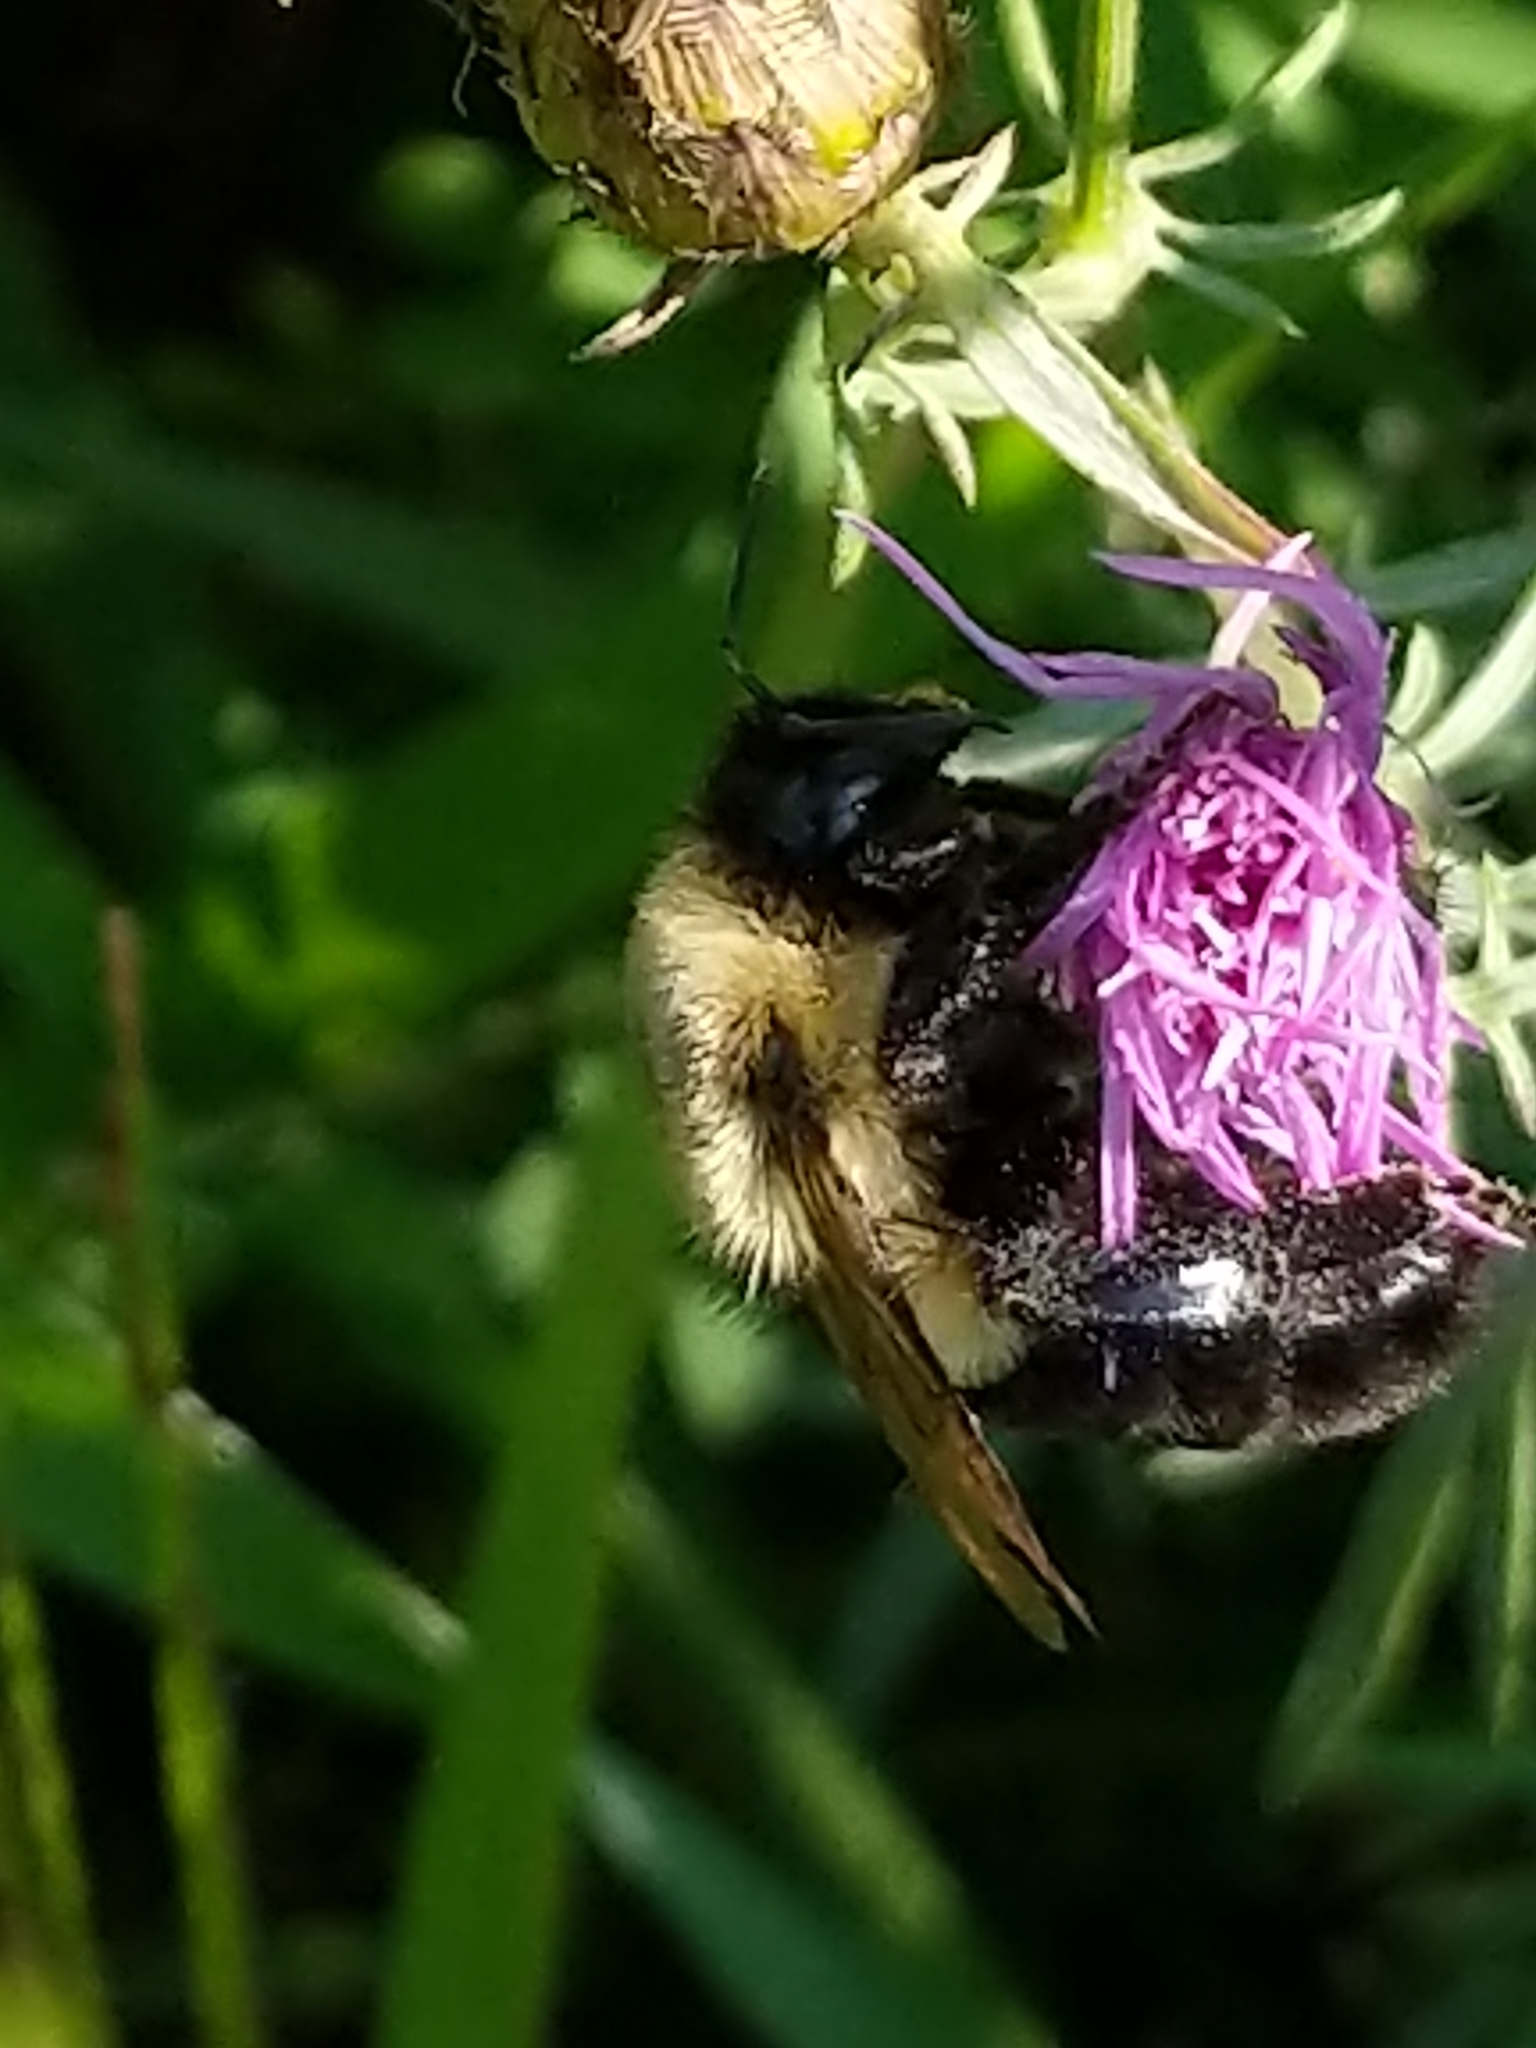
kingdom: Animalia
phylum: Arthropoda
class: Insecta
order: Hymenoptera
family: Apidae
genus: Bombus
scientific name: Bombus impatiens
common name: Common eastern bumble bee
